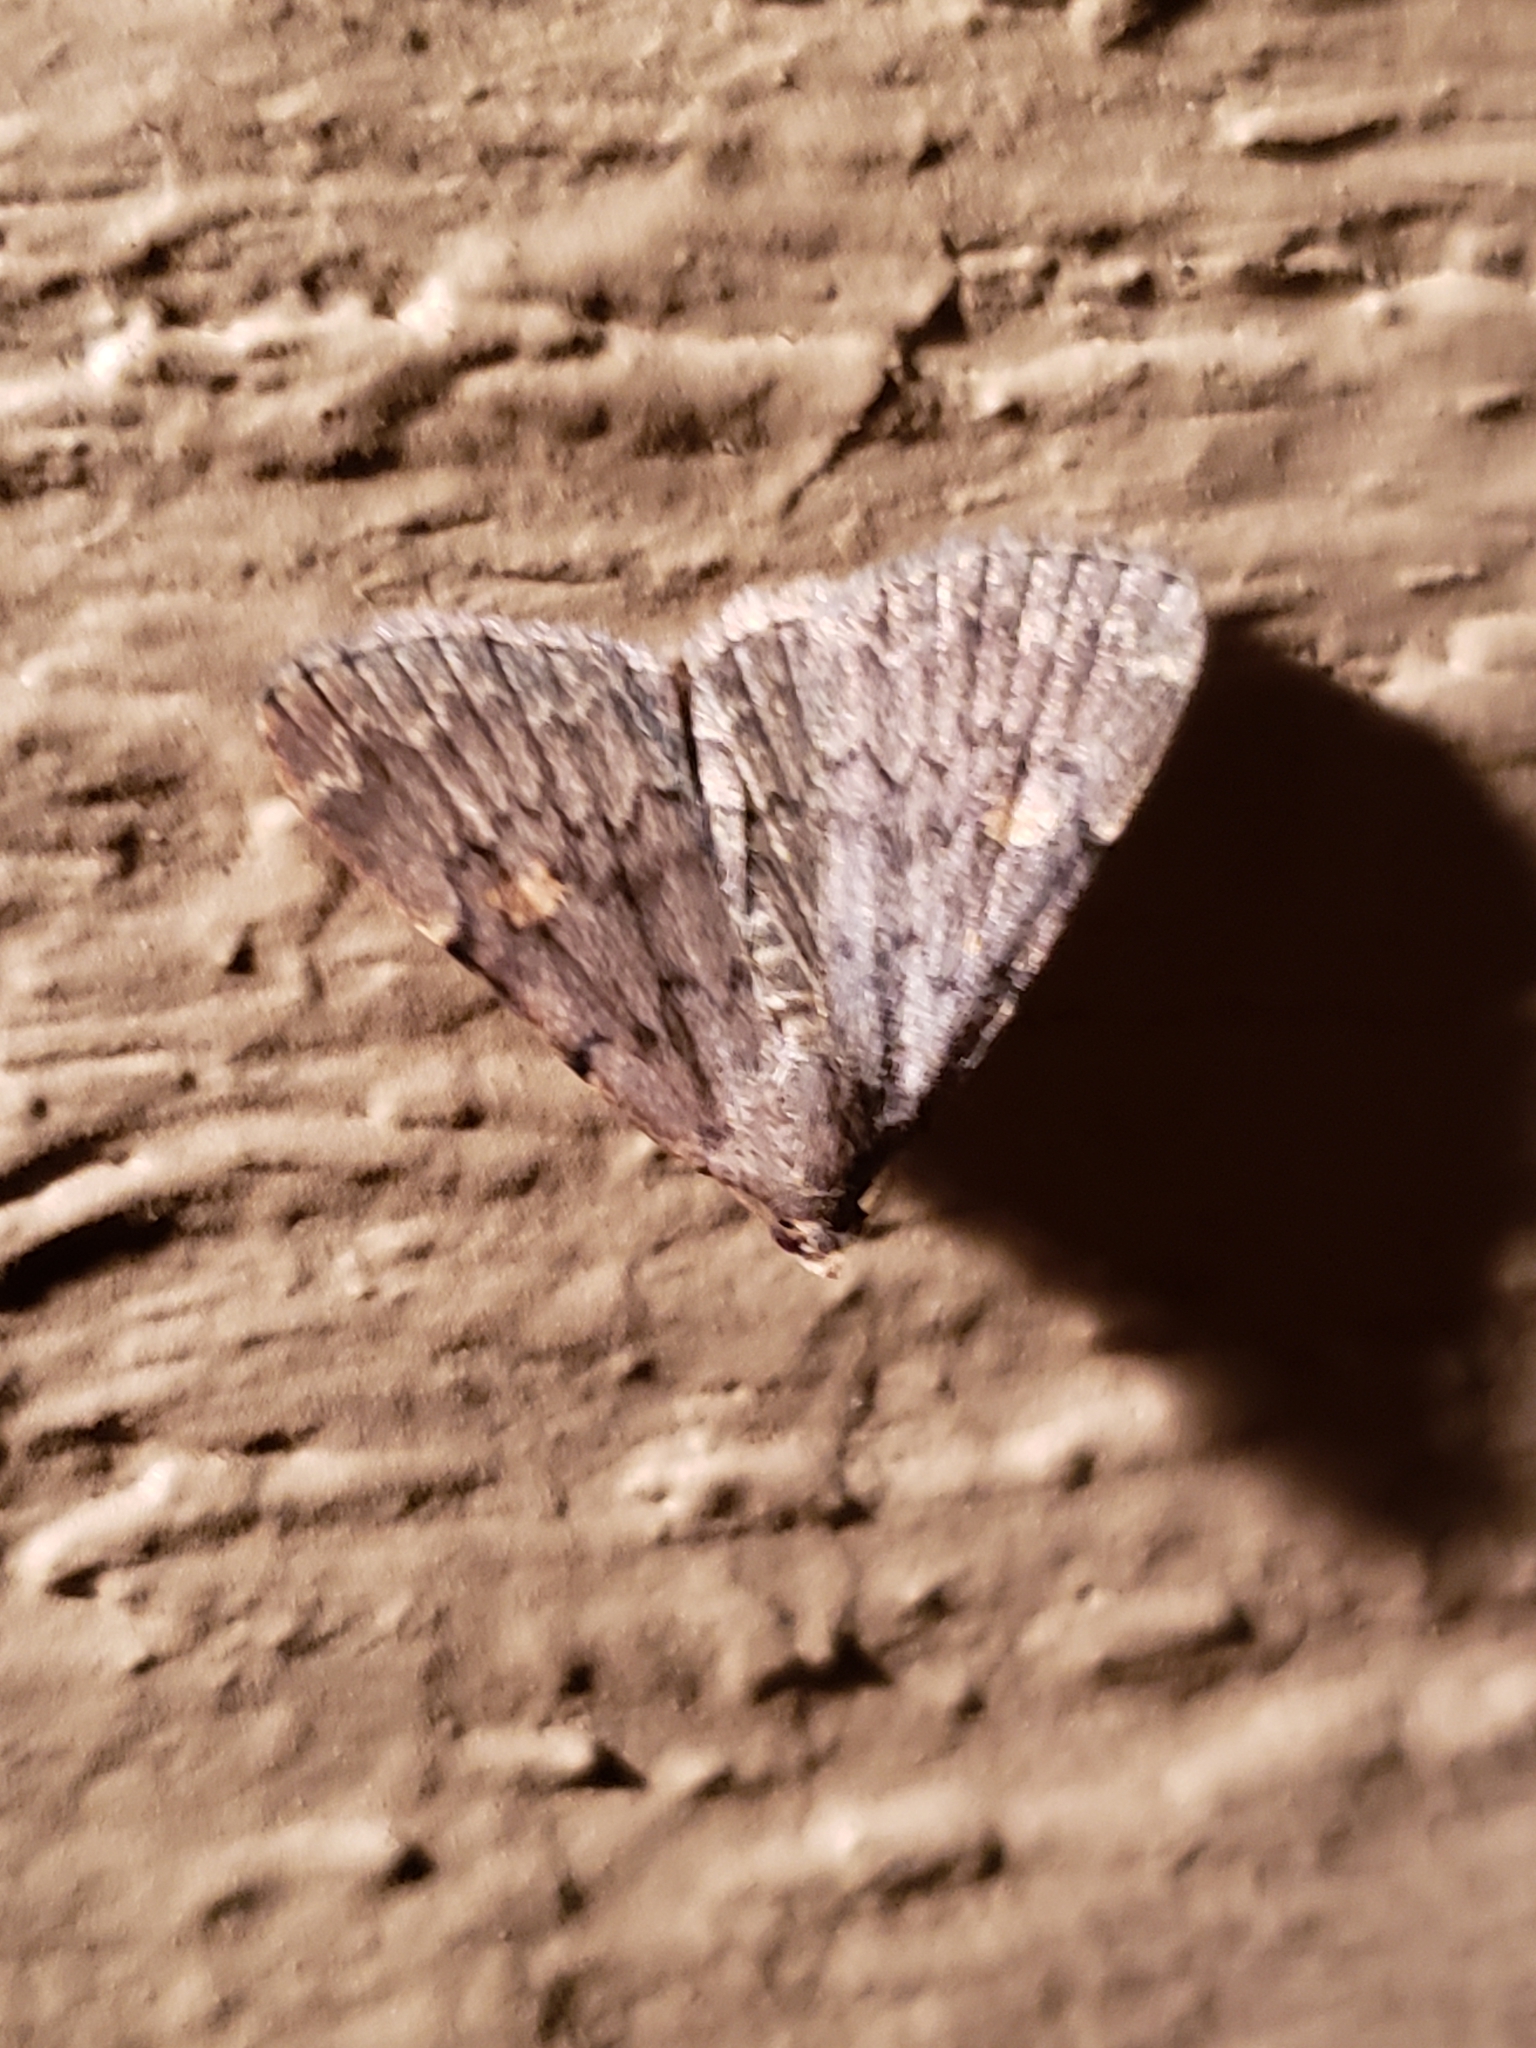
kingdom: Animalia
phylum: Arthropoda
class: Insecta
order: Lepidoptera
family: Erebidae
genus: Idia
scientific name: Idia aemula
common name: Common idia moth
